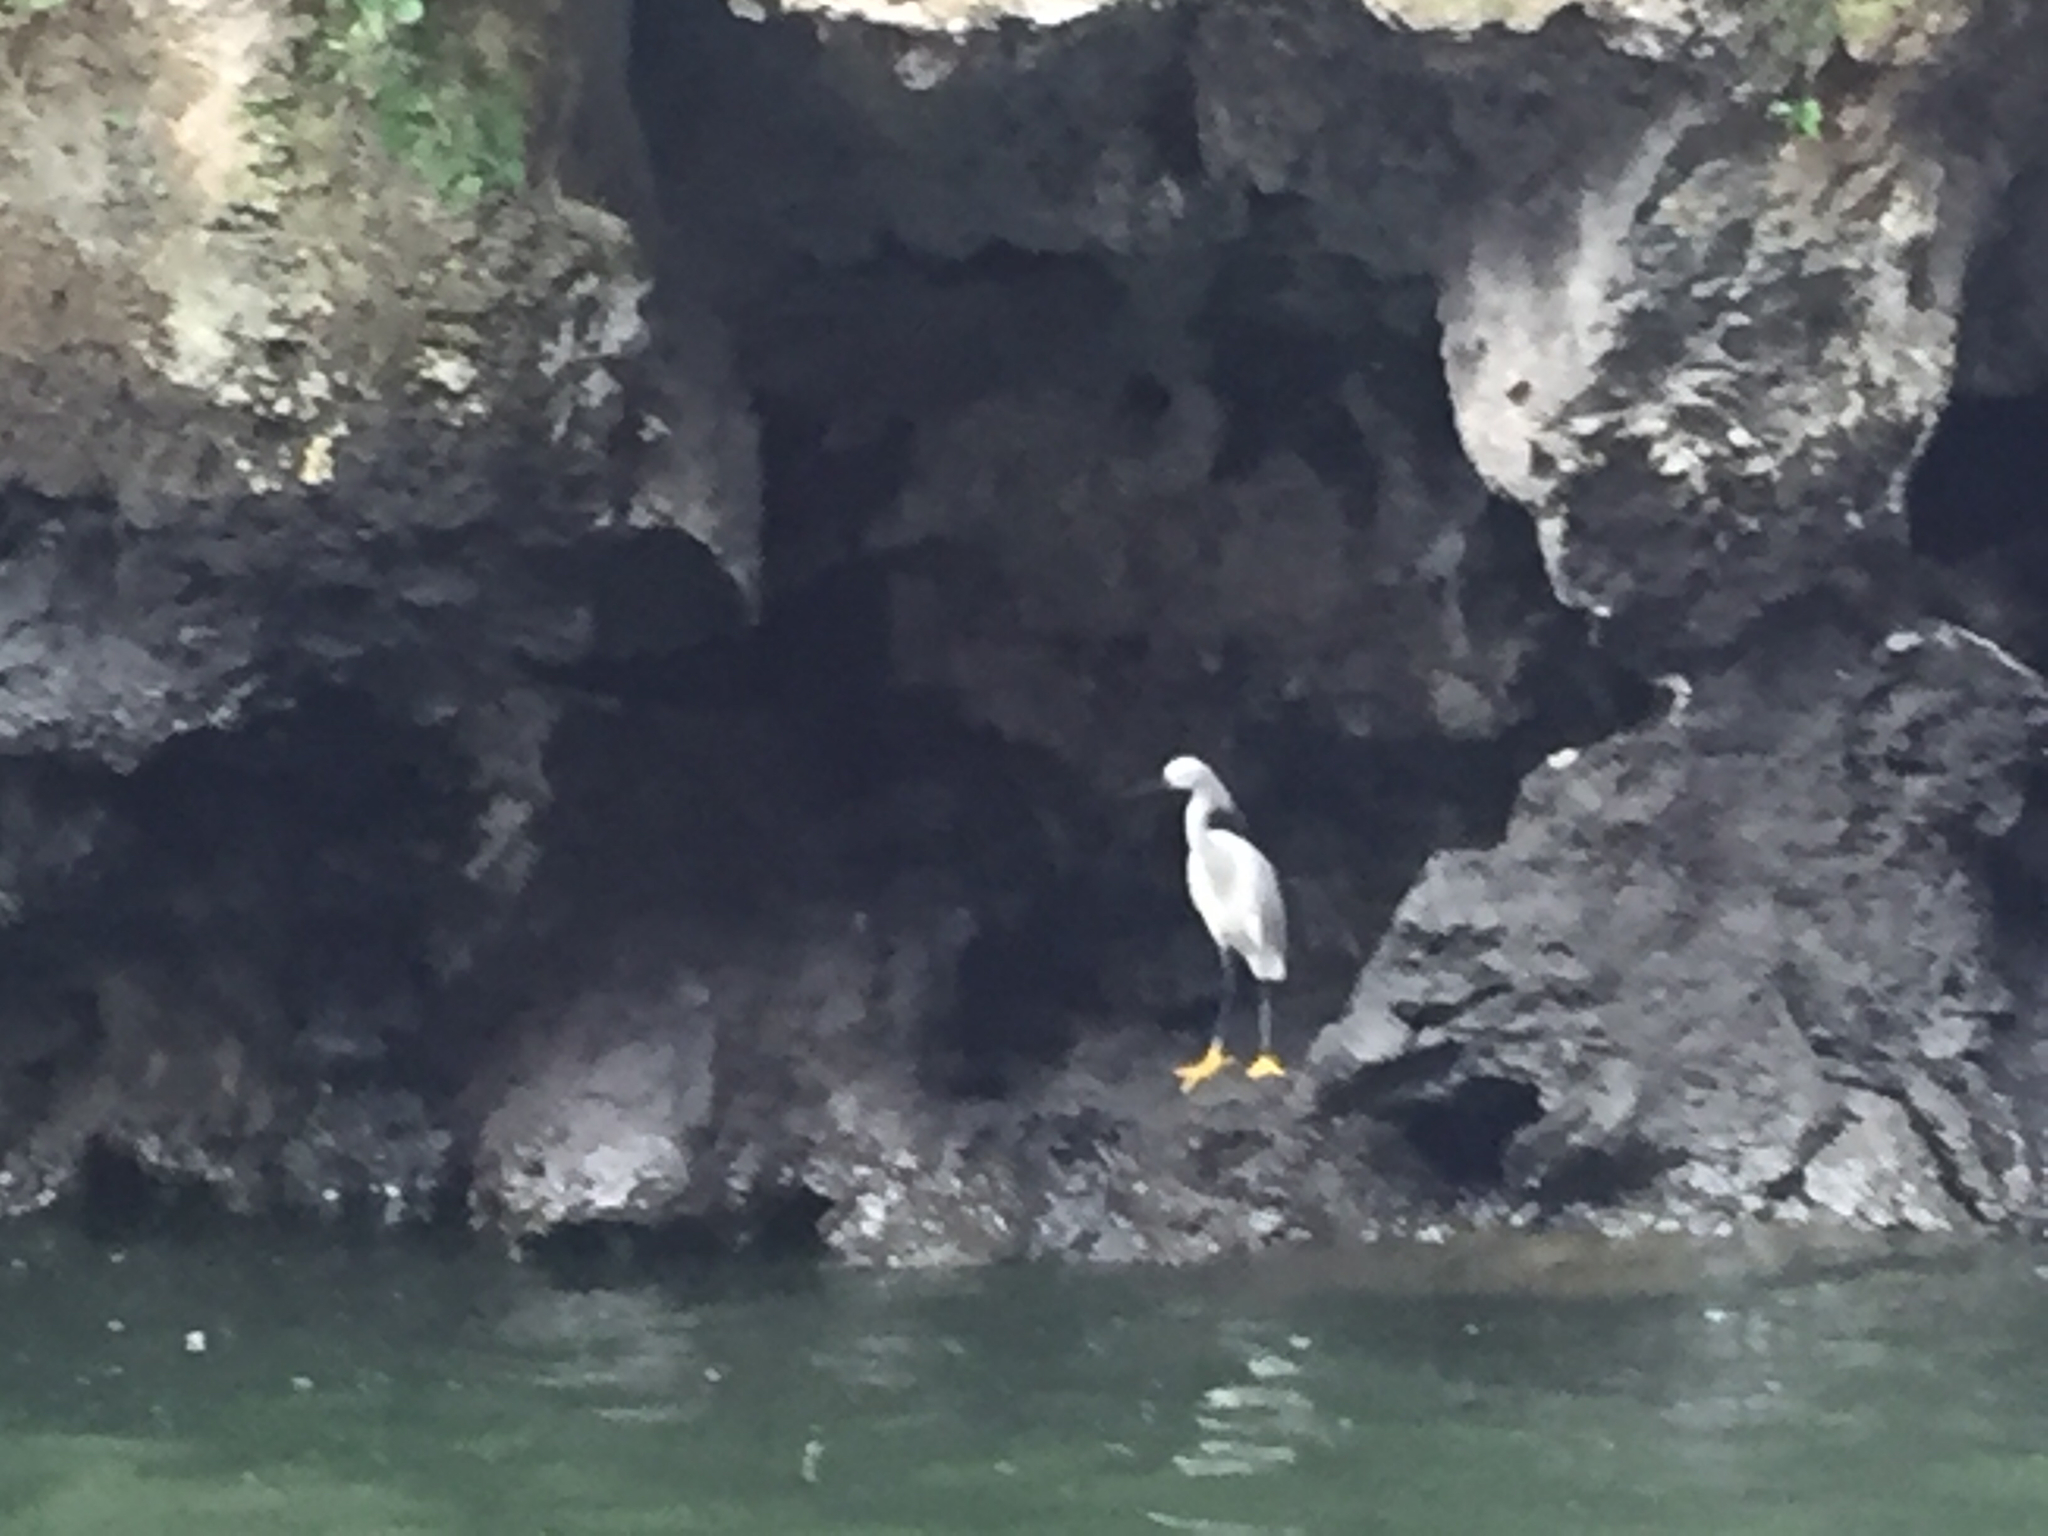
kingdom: Animalia
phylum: Chordata
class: Aves
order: Pelecaniformes
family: Ardeidae
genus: Egretta
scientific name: Egretta thula
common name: Snowy egret
